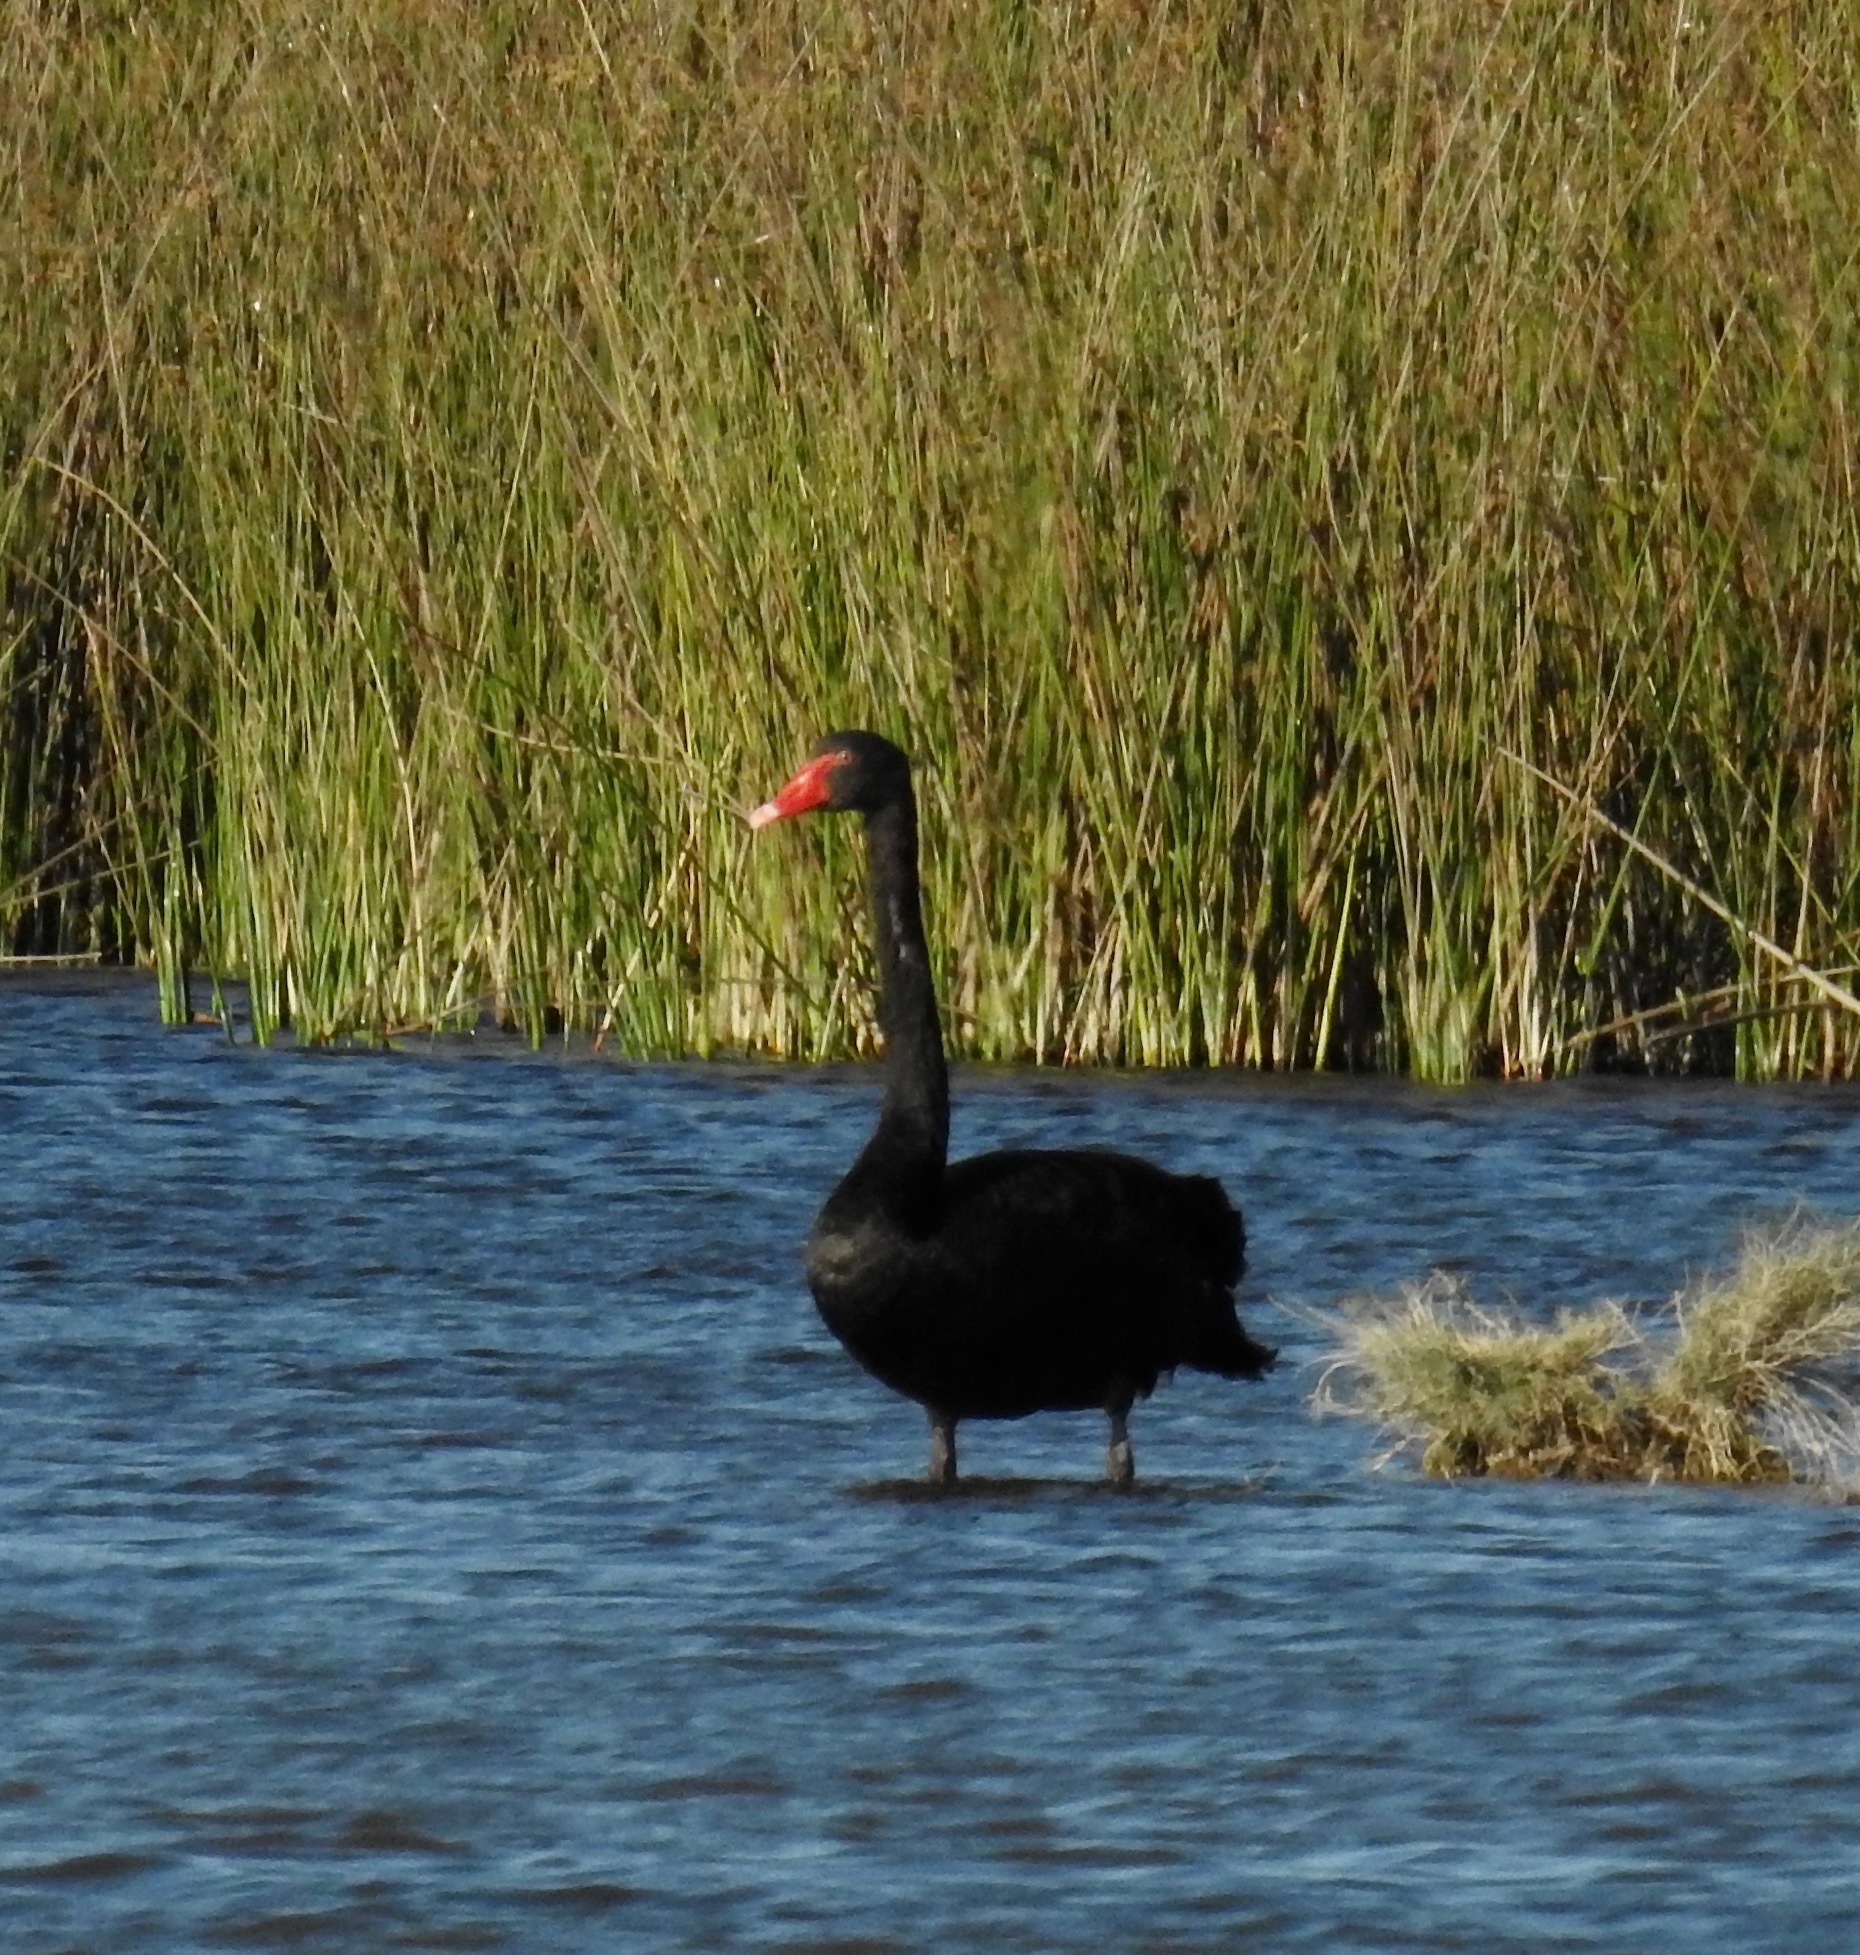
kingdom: Animalia
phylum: Chordata
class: Aves
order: Anseriformes
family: Anatidae
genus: Cygnus
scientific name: Cygnus atratus
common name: Black swan
